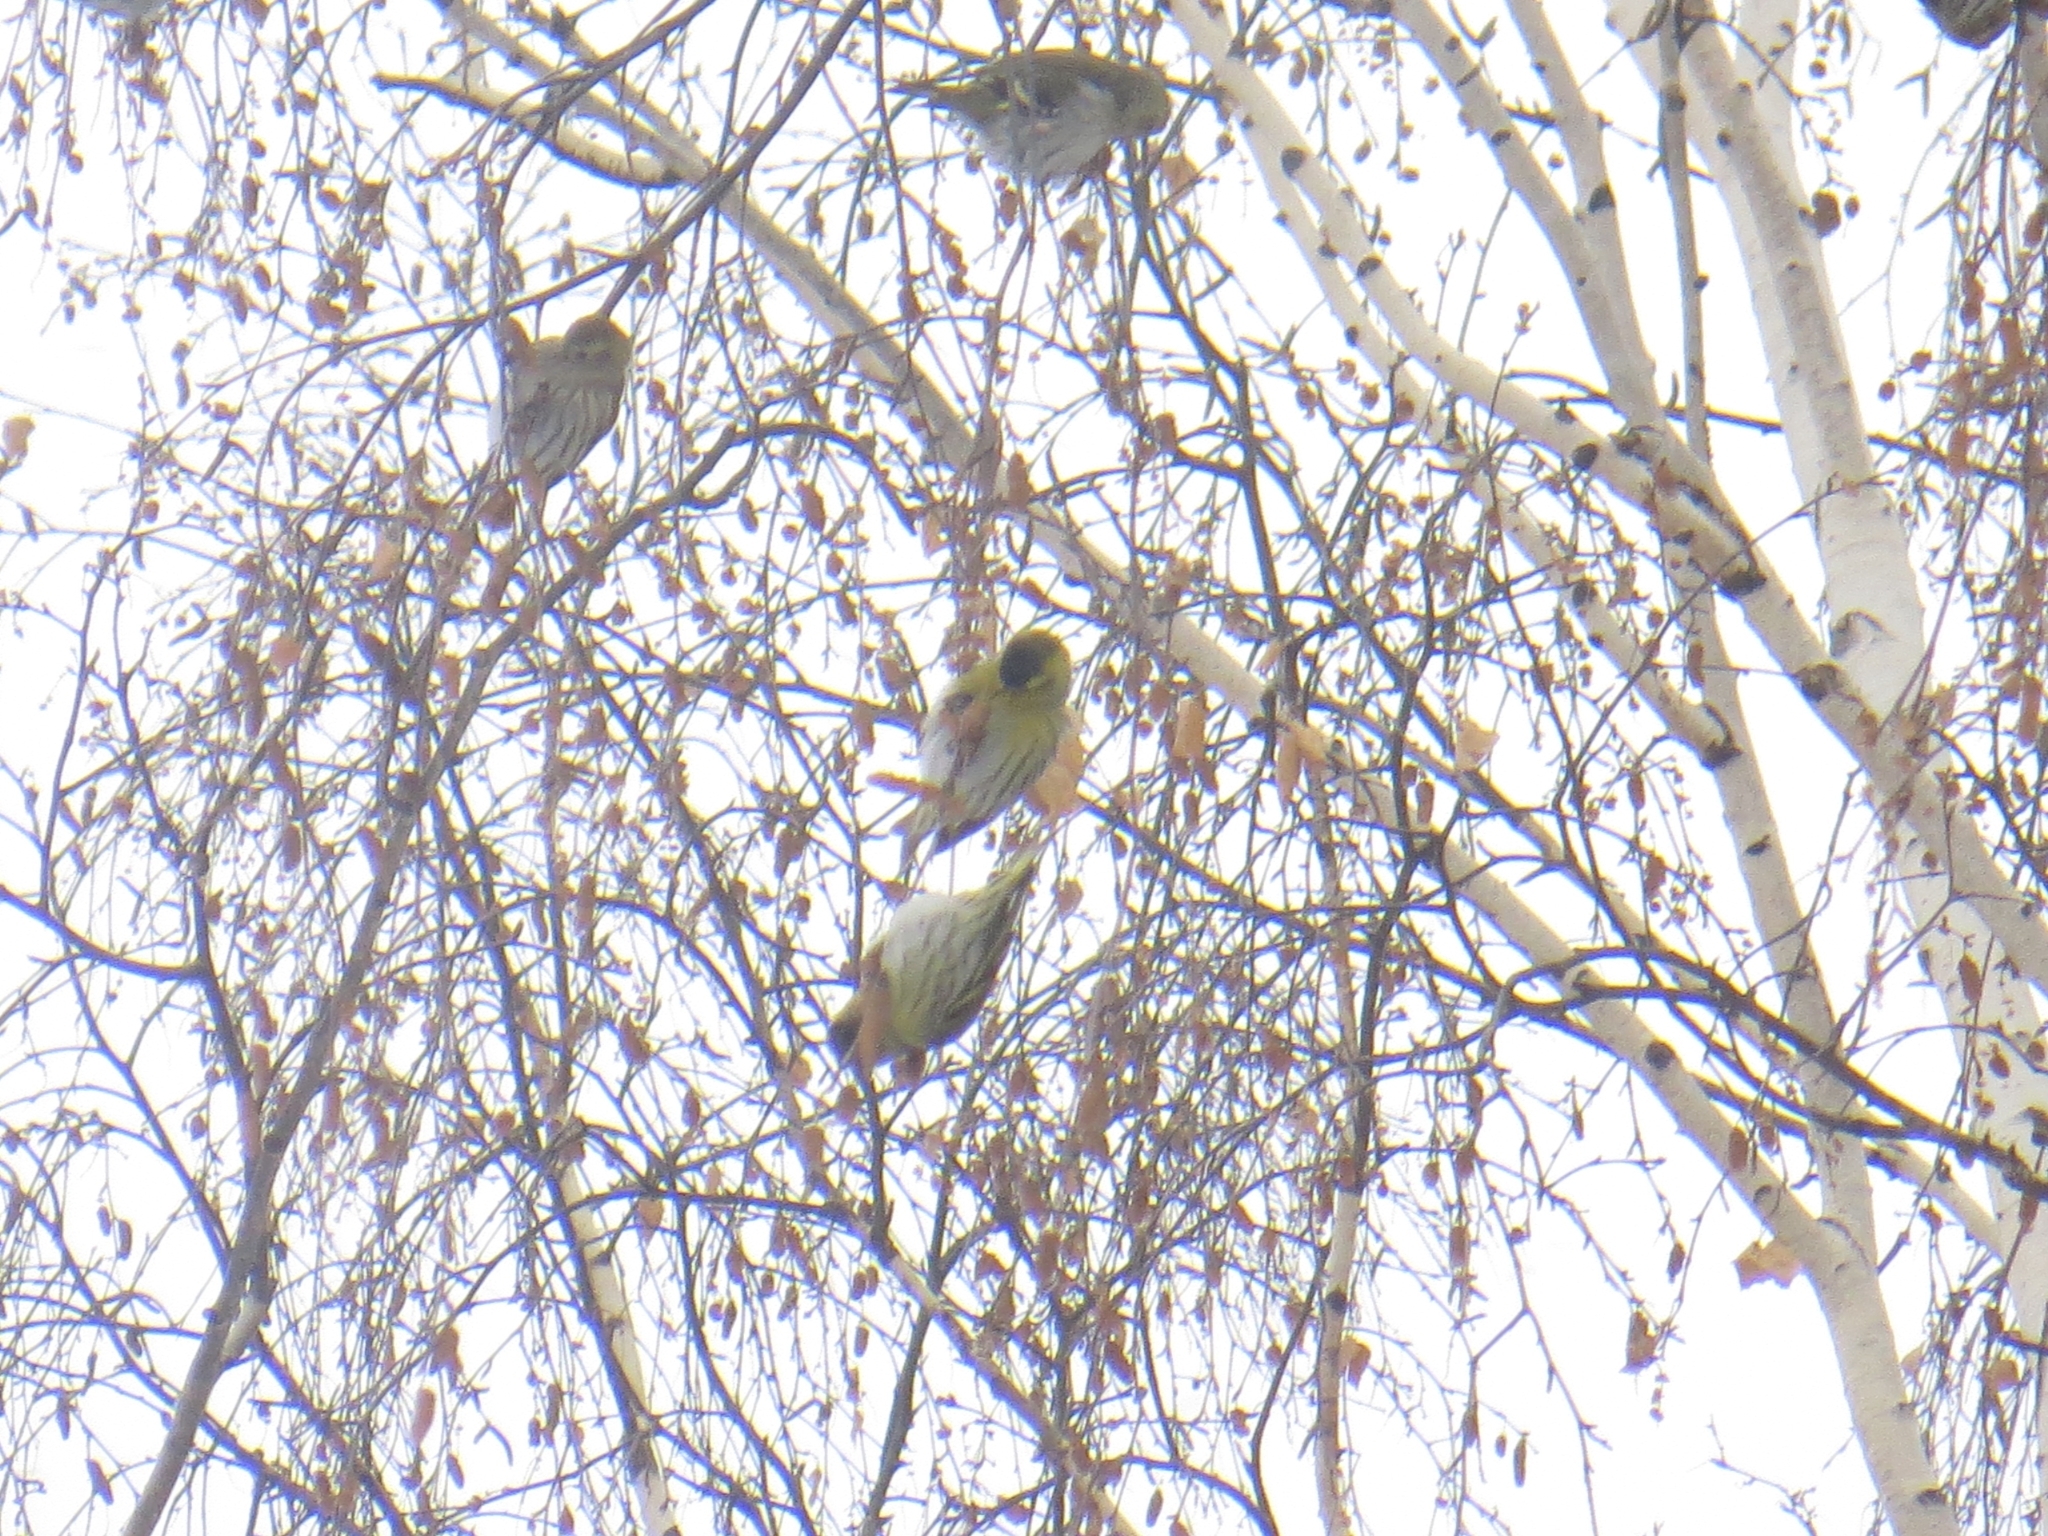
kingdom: Animalia
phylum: Chordata
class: Aves
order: Passeriformes
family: Fringillidae
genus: Spinus
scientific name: Spinus spinus
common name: Eurasian siskin
